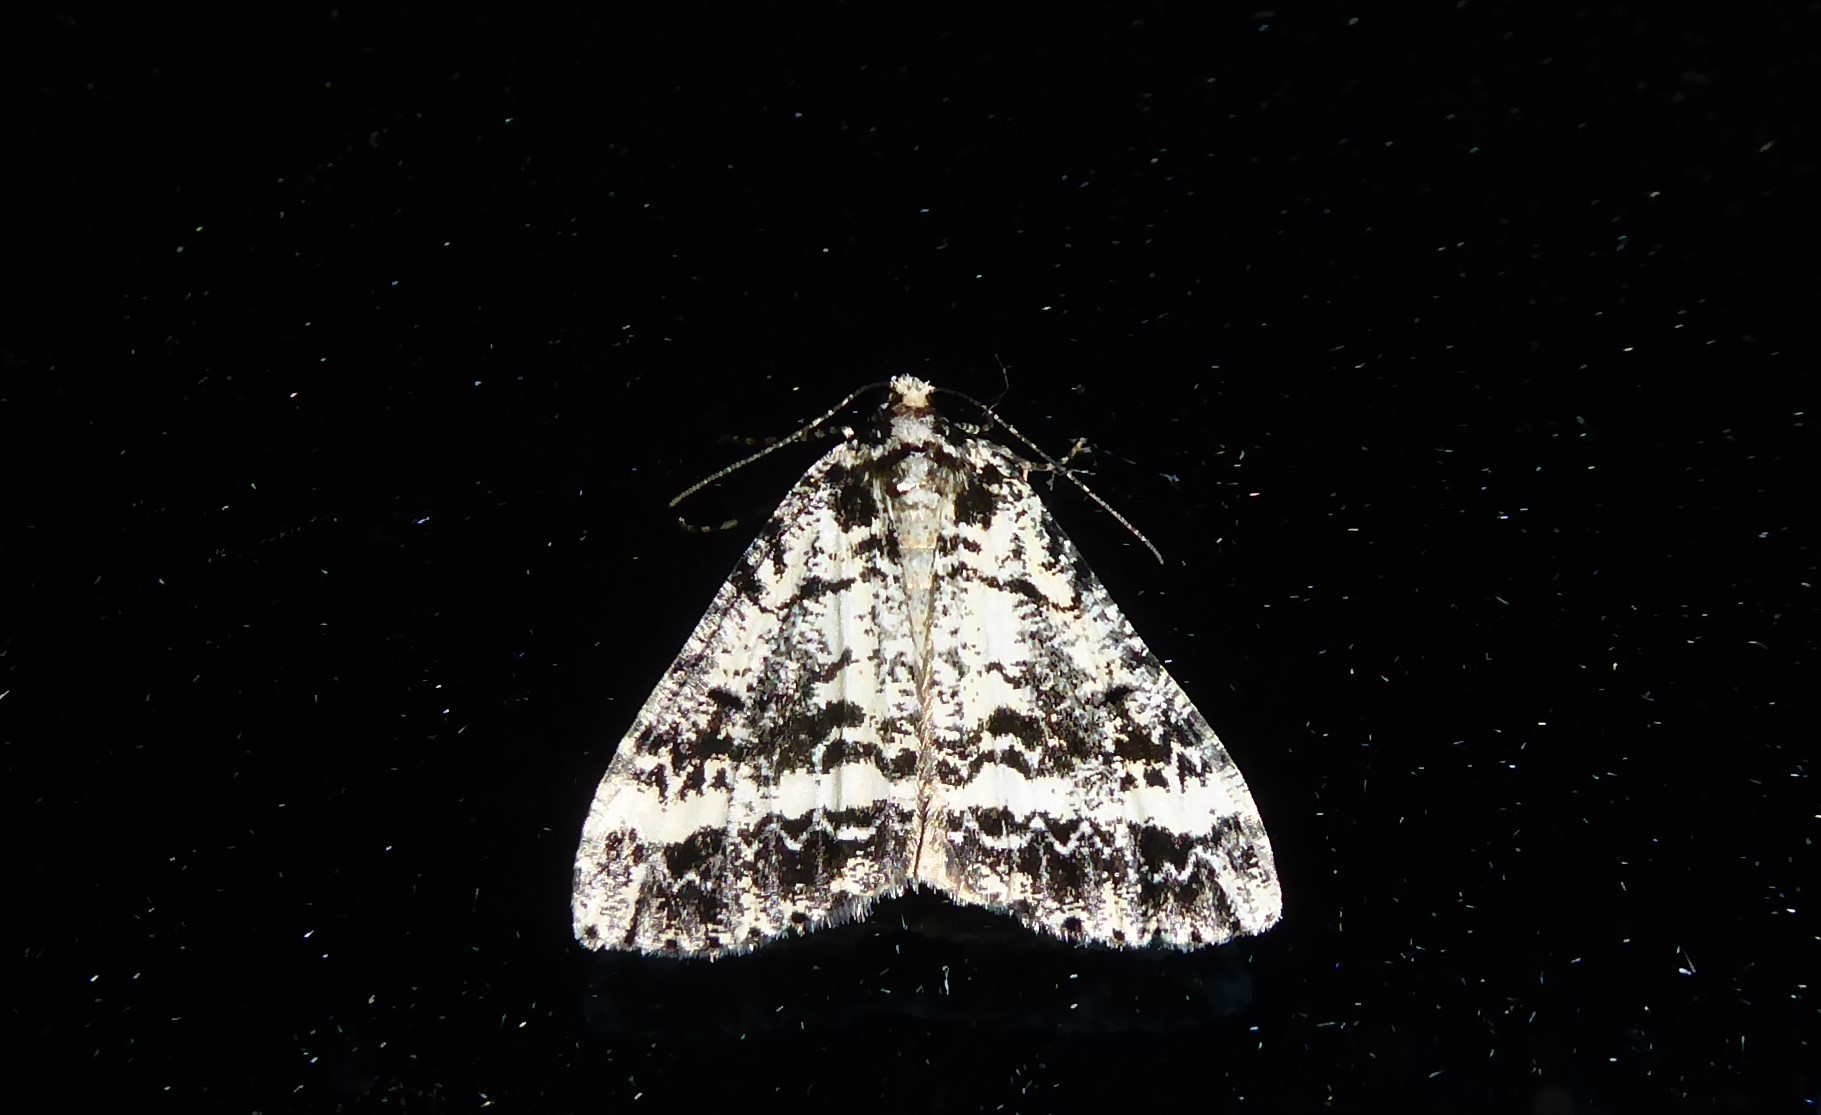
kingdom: Animalia
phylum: Arthropoda
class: Insecta
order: Lepidoptera
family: Geometridae
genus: Pseudocoremia
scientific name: Pseudocoremia leucelaea
